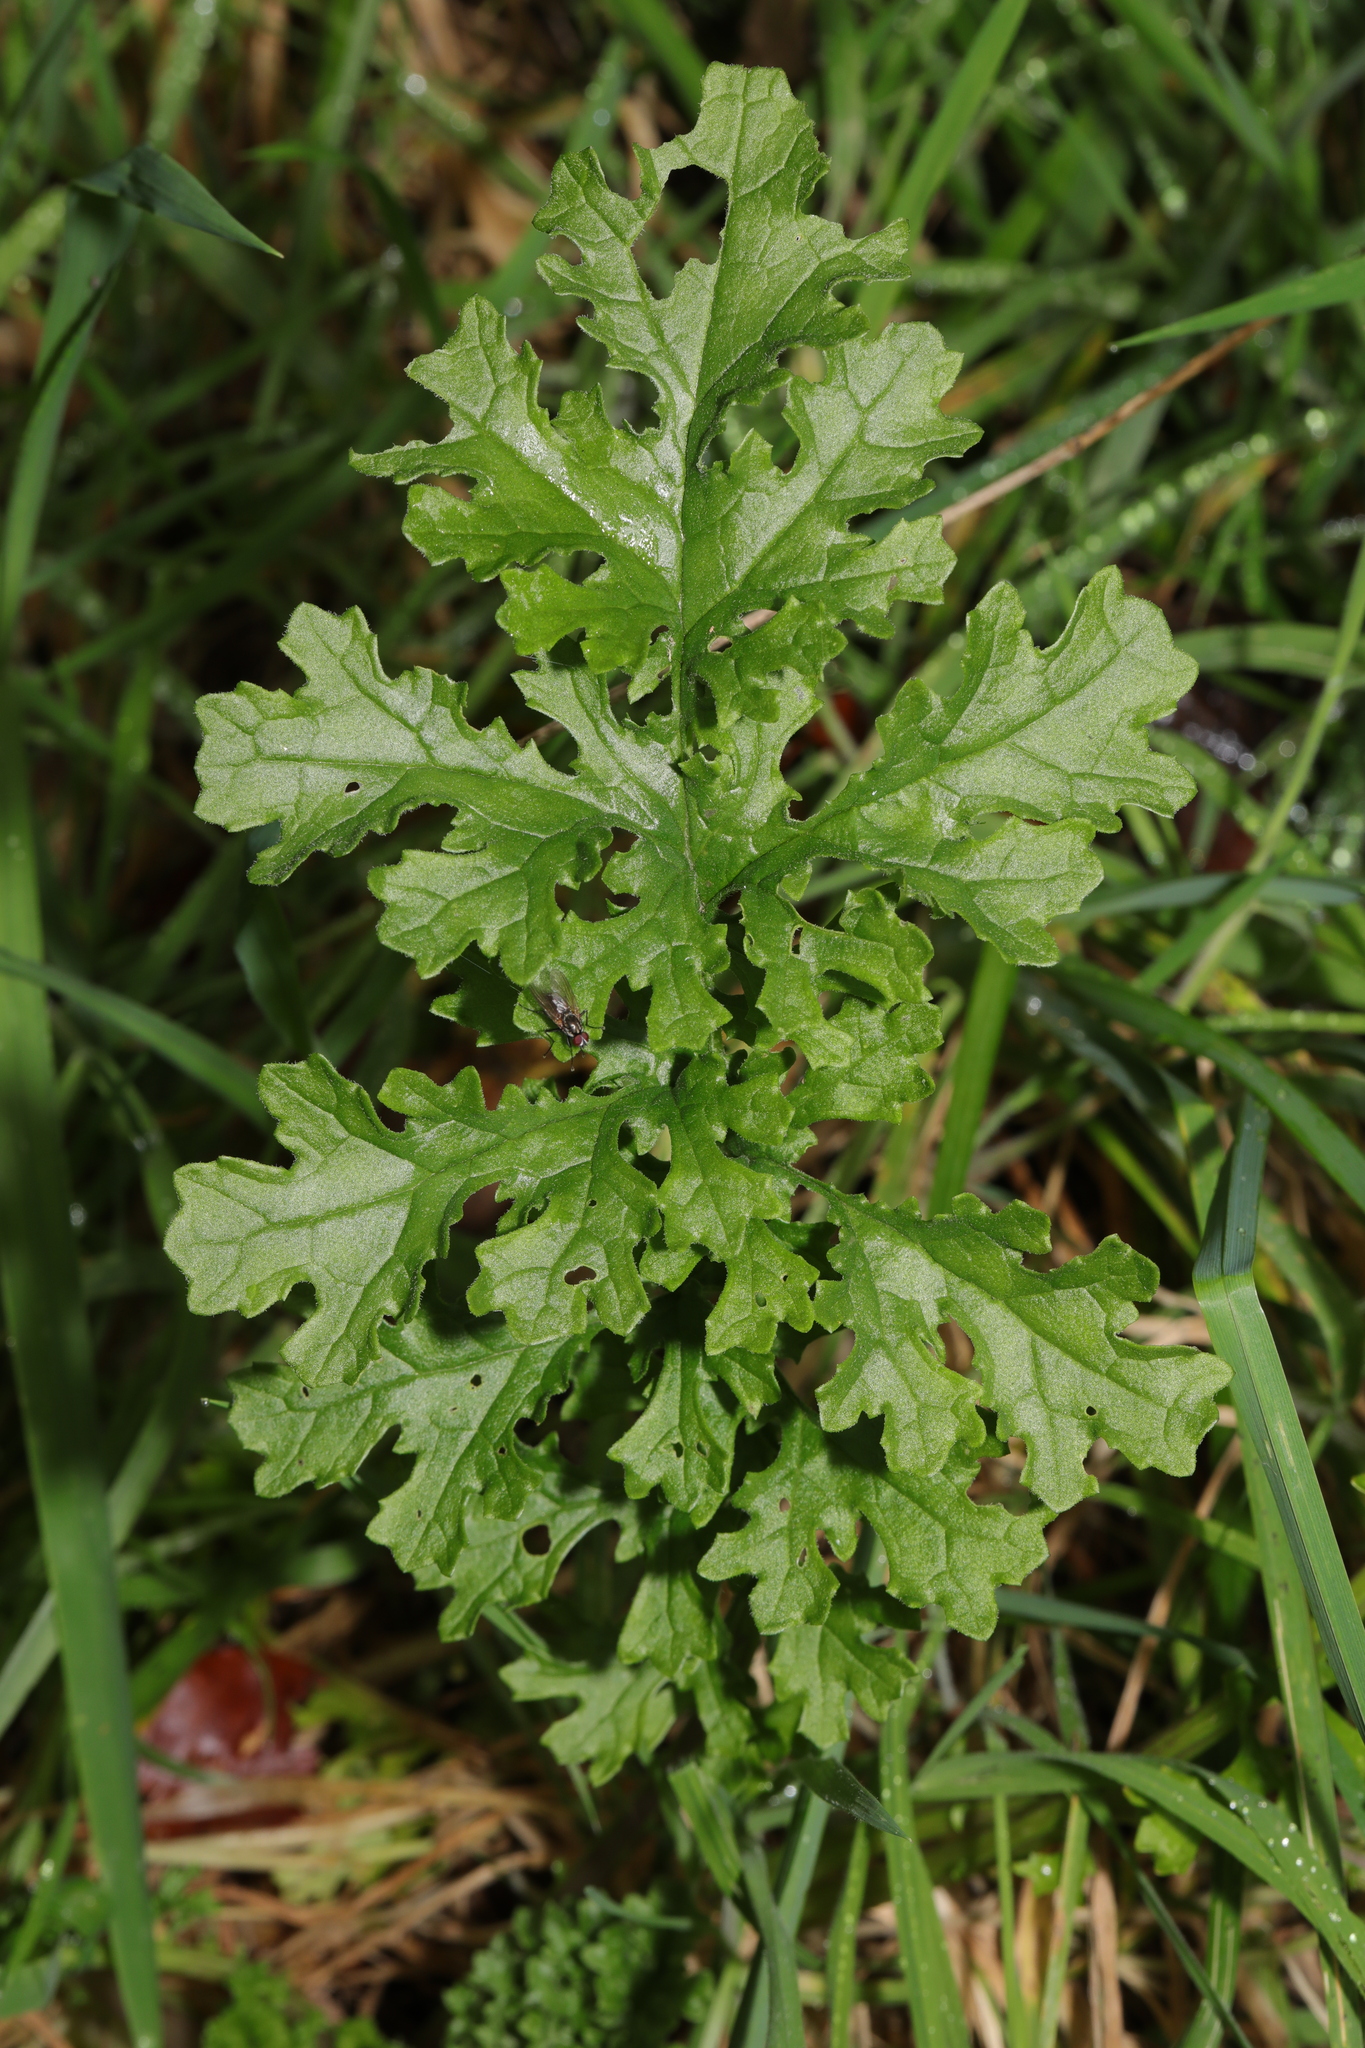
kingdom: Plantae
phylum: Tracheophyta
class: Magnoliopsida
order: Asterales
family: Asteraceae
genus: Jacobaea
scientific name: Jacobaea vulgaris
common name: Stinking willie
